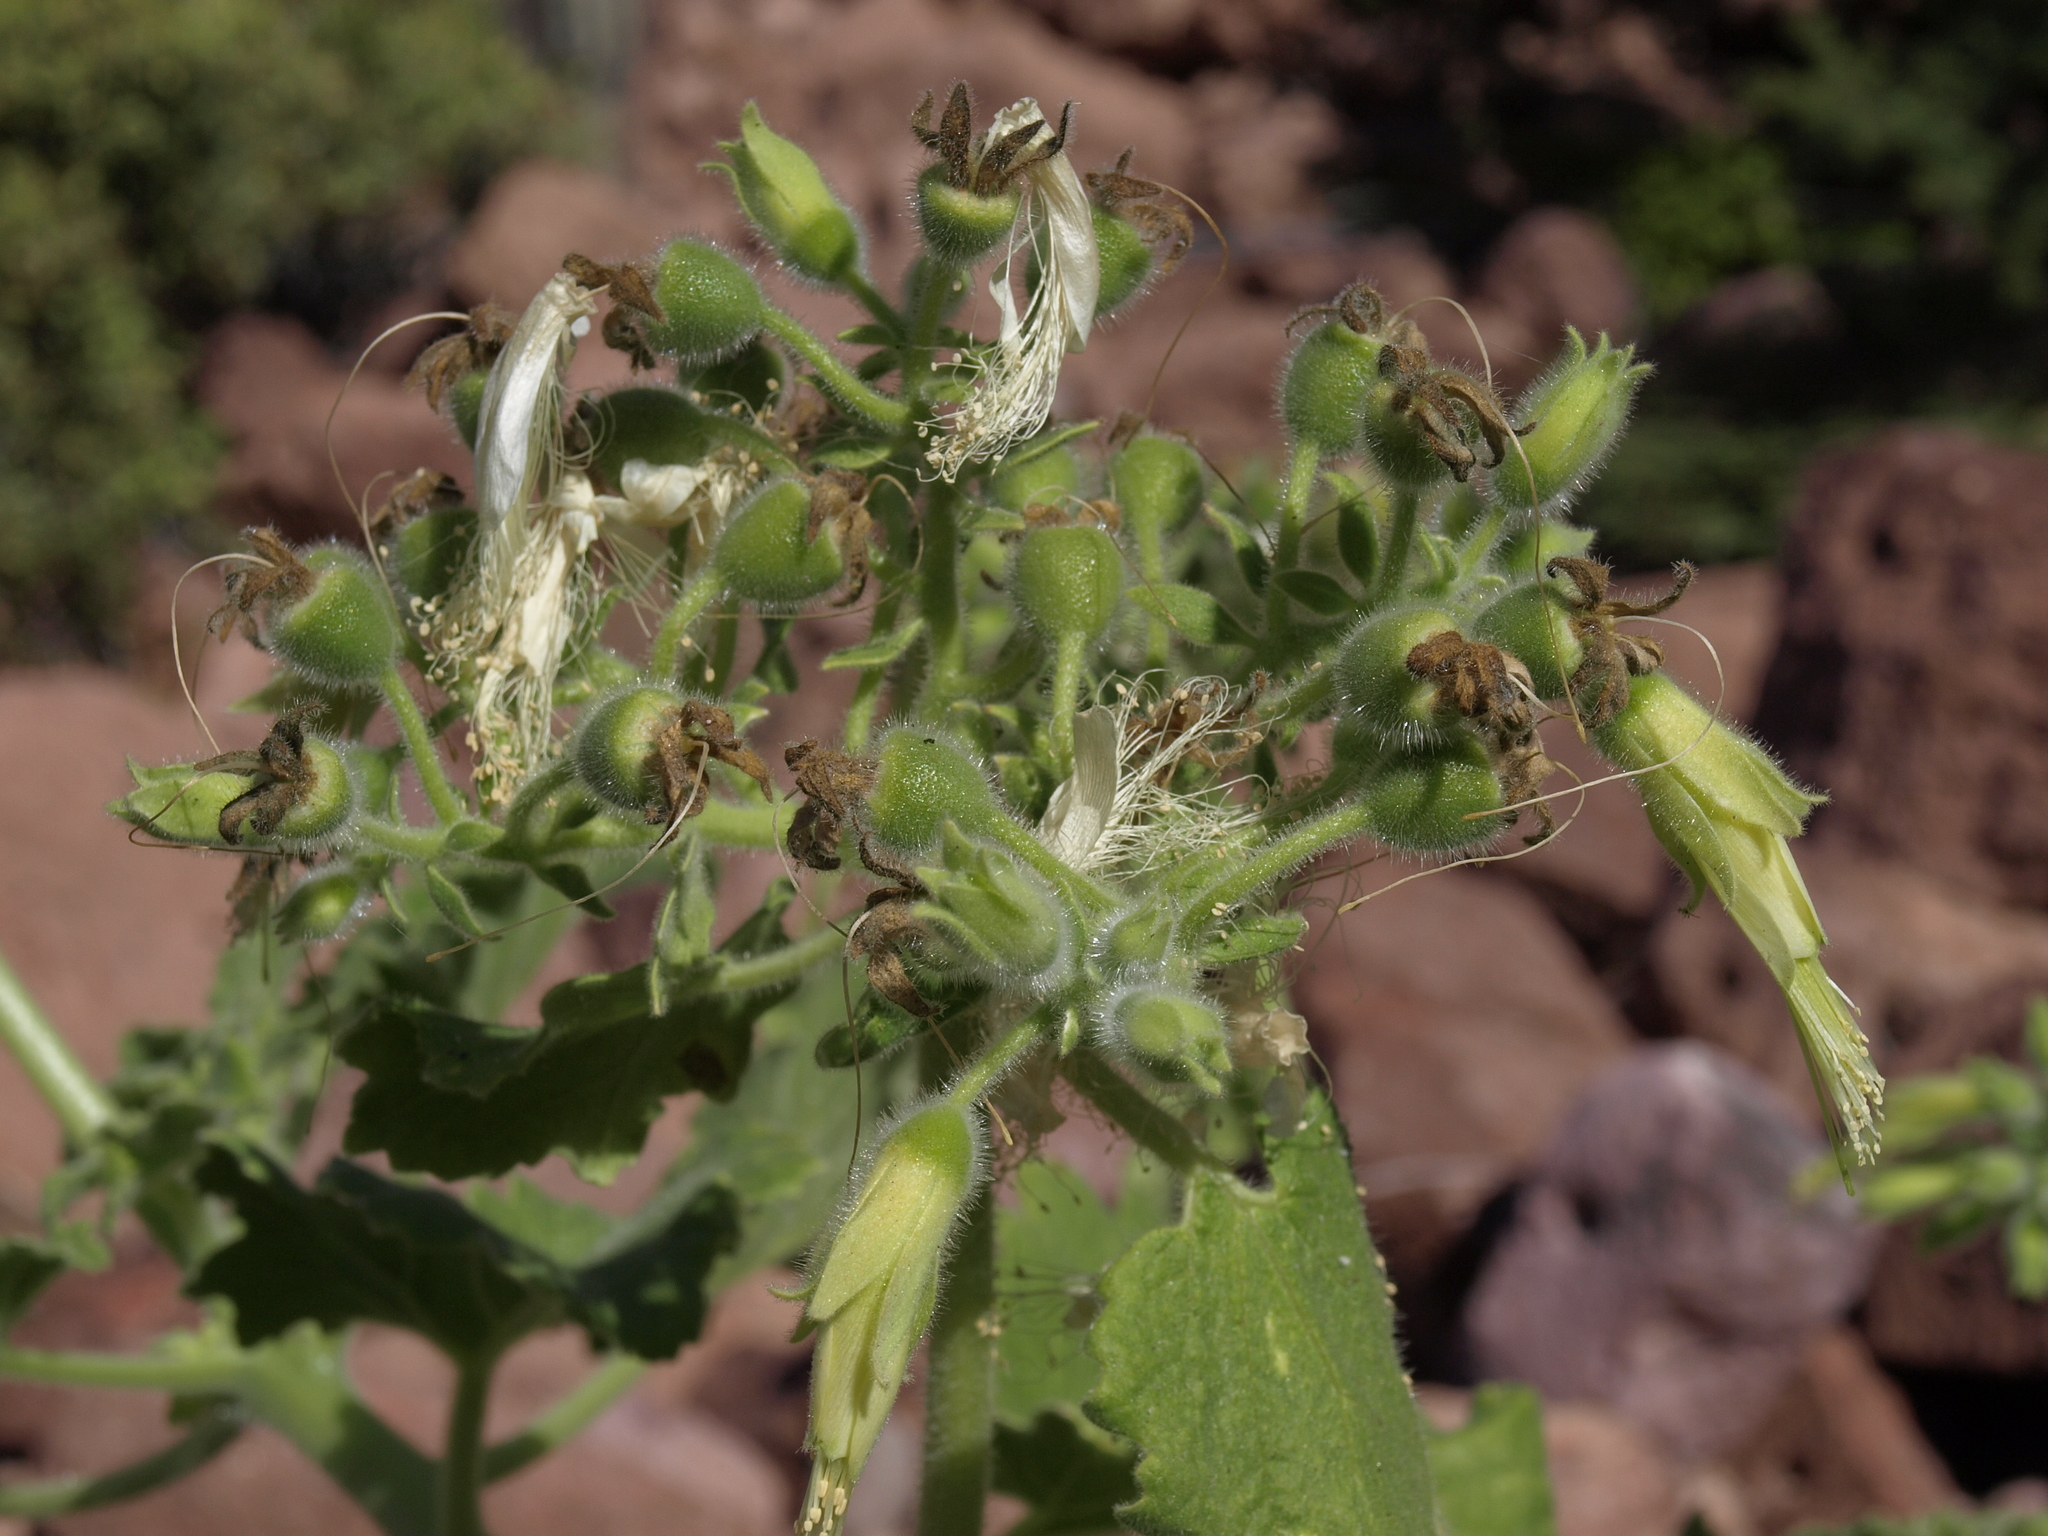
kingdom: Plantae
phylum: Tracheophyta
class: Magnoliopsida
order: Cornales
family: Loasaceae
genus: Eucnide
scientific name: Eucnide cordata
